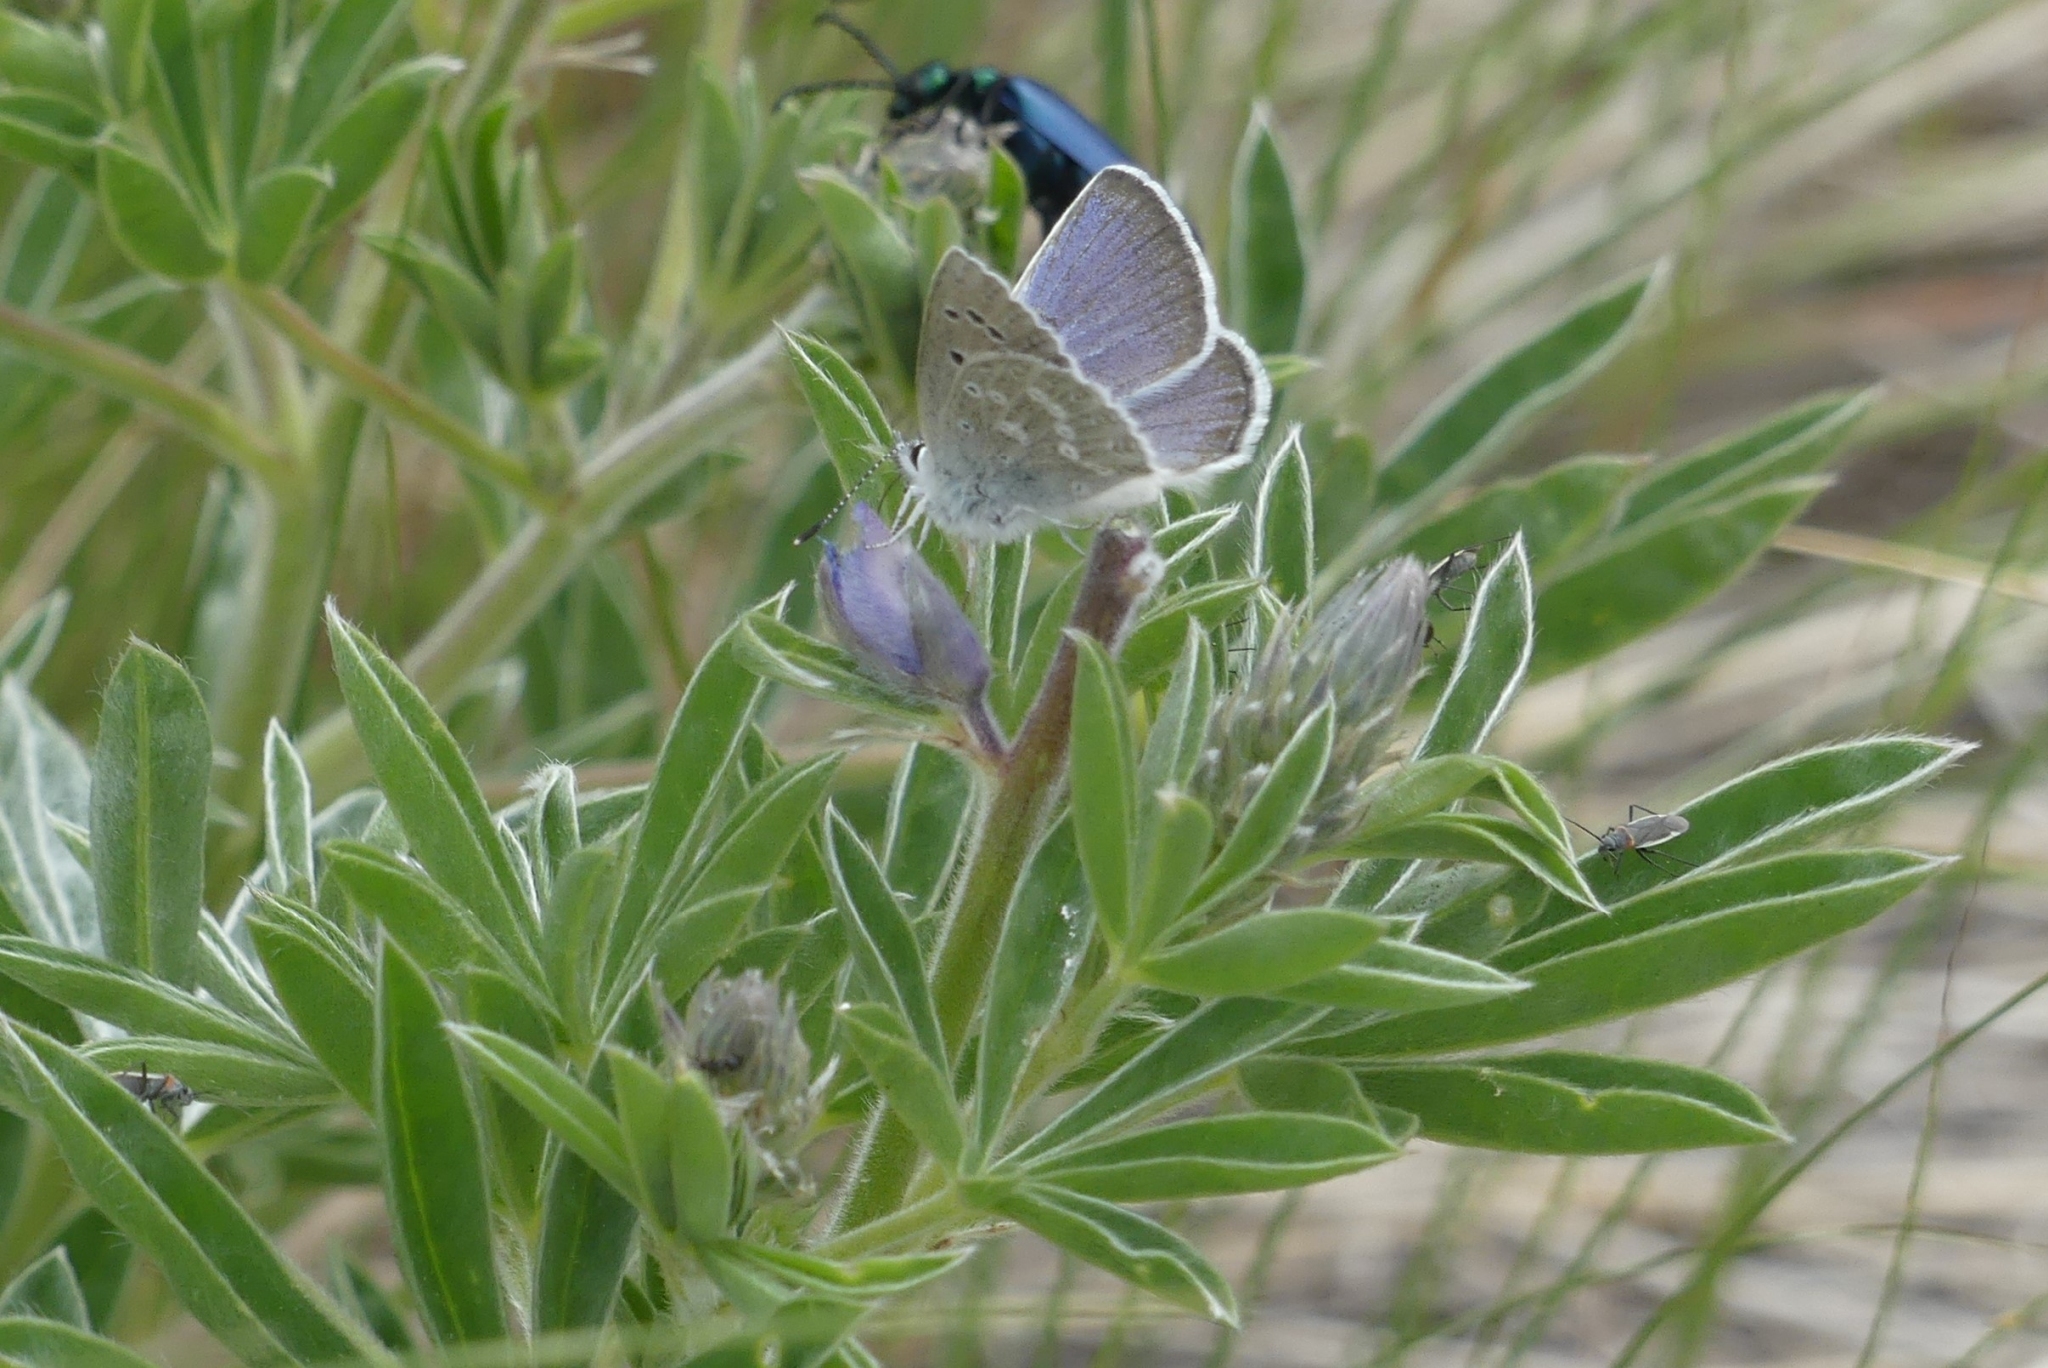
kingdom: Animalia
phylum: Arthropoda
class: Insecta
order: Lepidoptera
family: Lycaenidae
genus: Icaricia
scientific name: Icaricia icarioides
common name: Boisduval's blue
